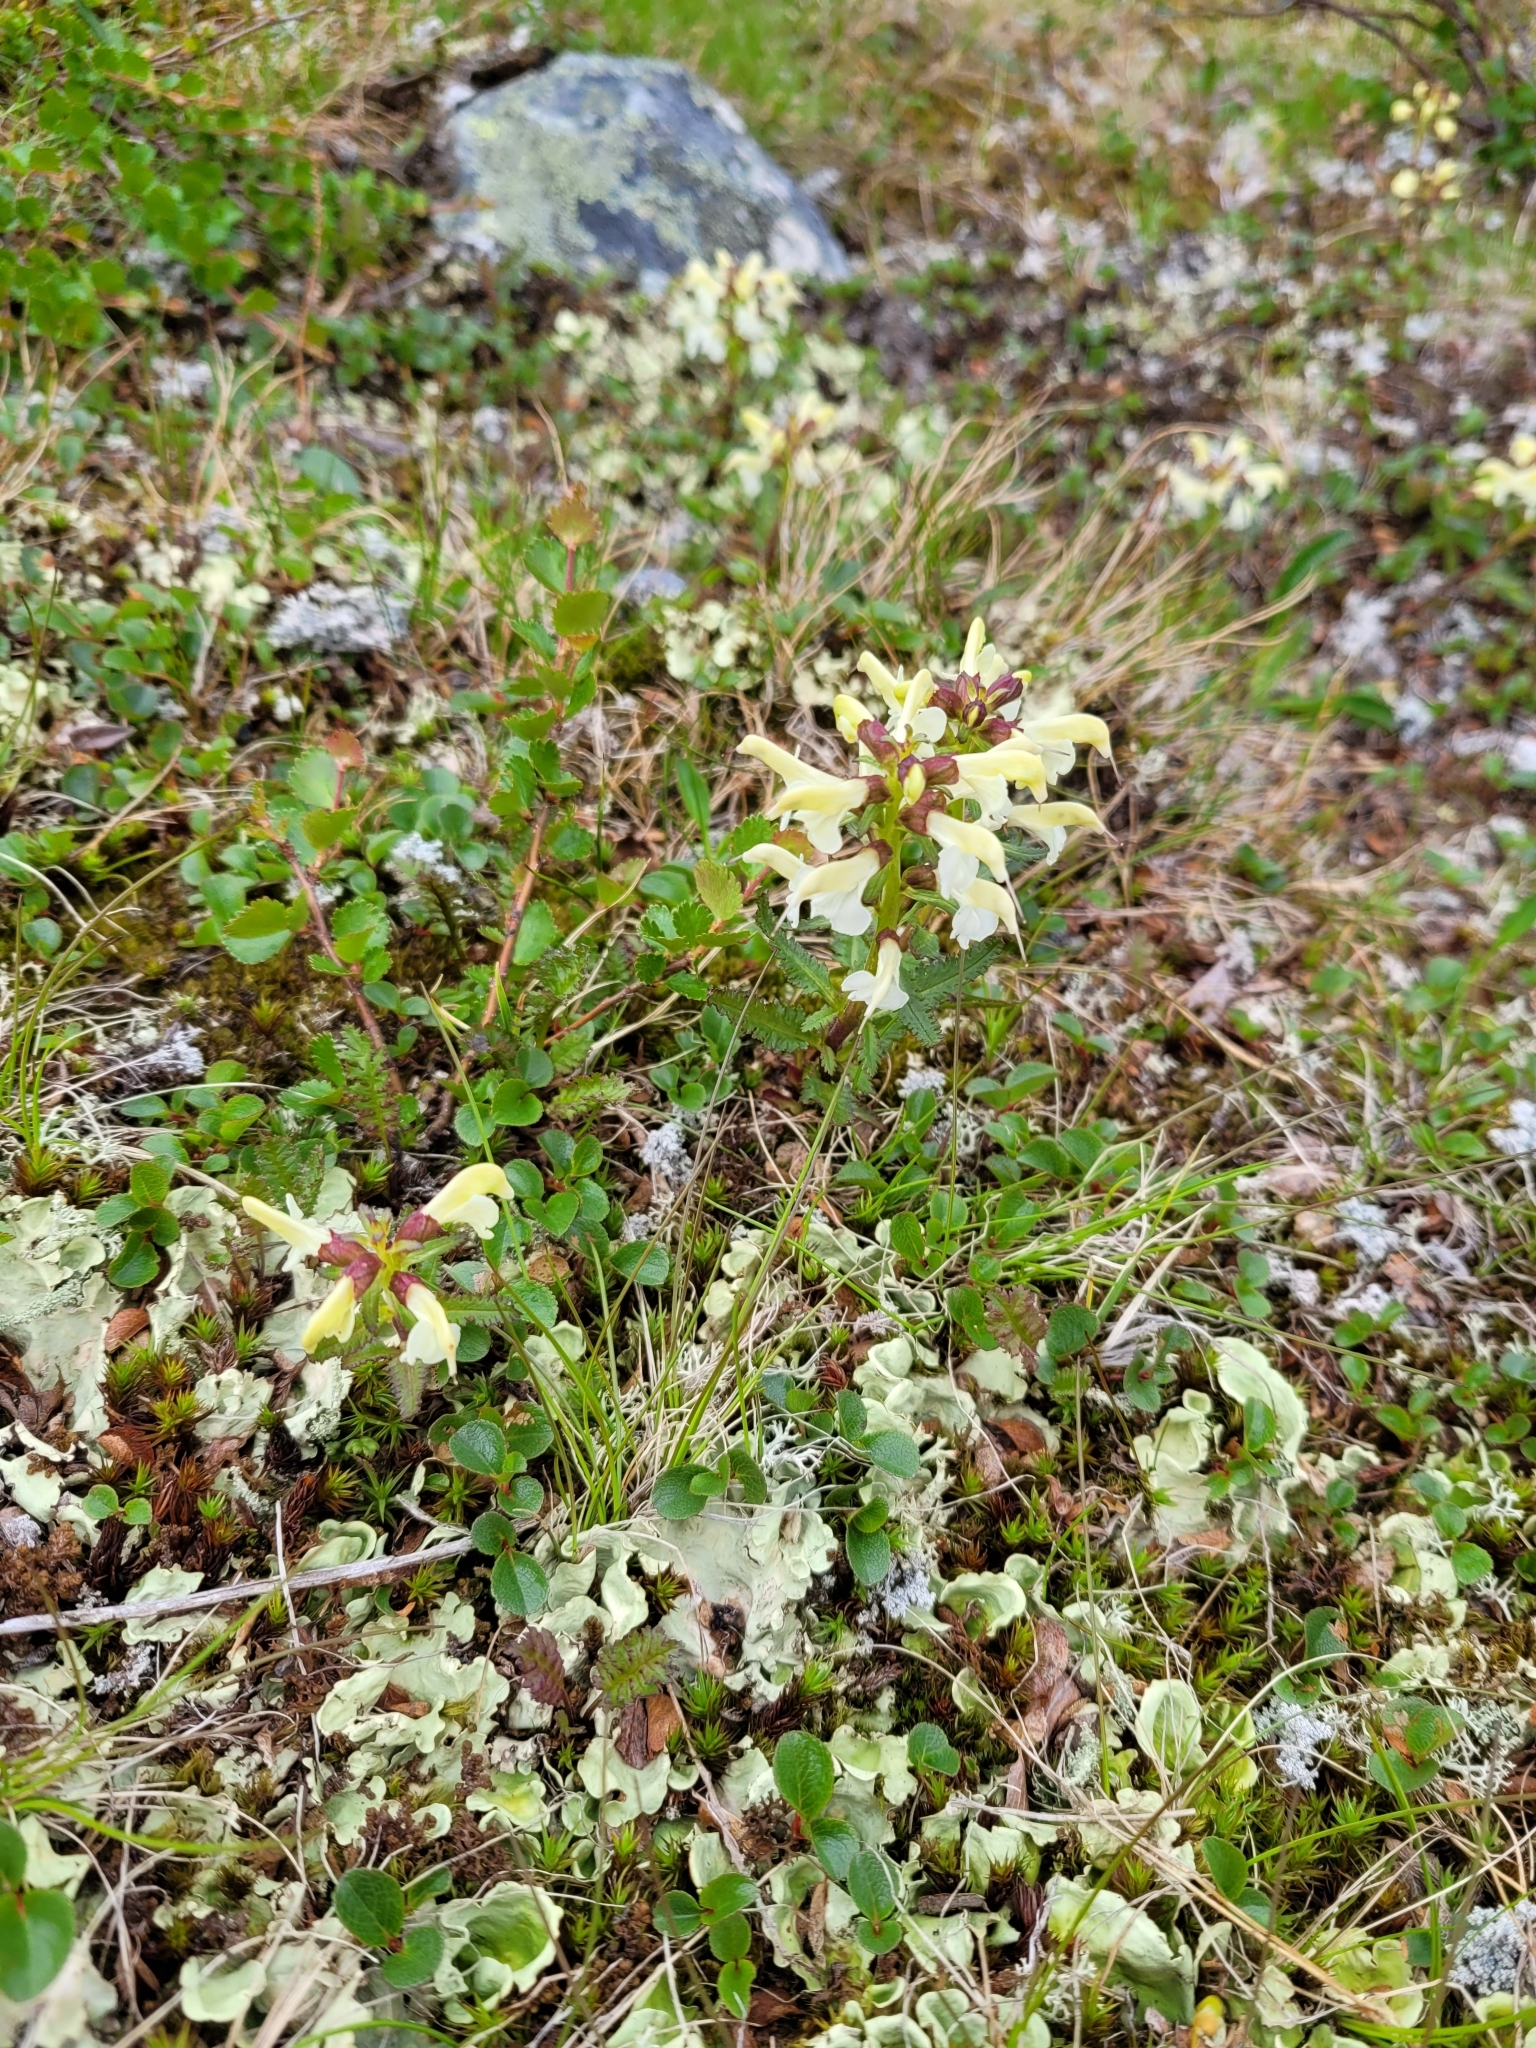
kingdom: Plantae
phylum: Tracheophyta
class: Magnoliopsida
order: Lamiales
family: Orobanchaceae
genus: Pedicularis
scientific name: Pedicularis lapponica
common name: Lapland lousewort
